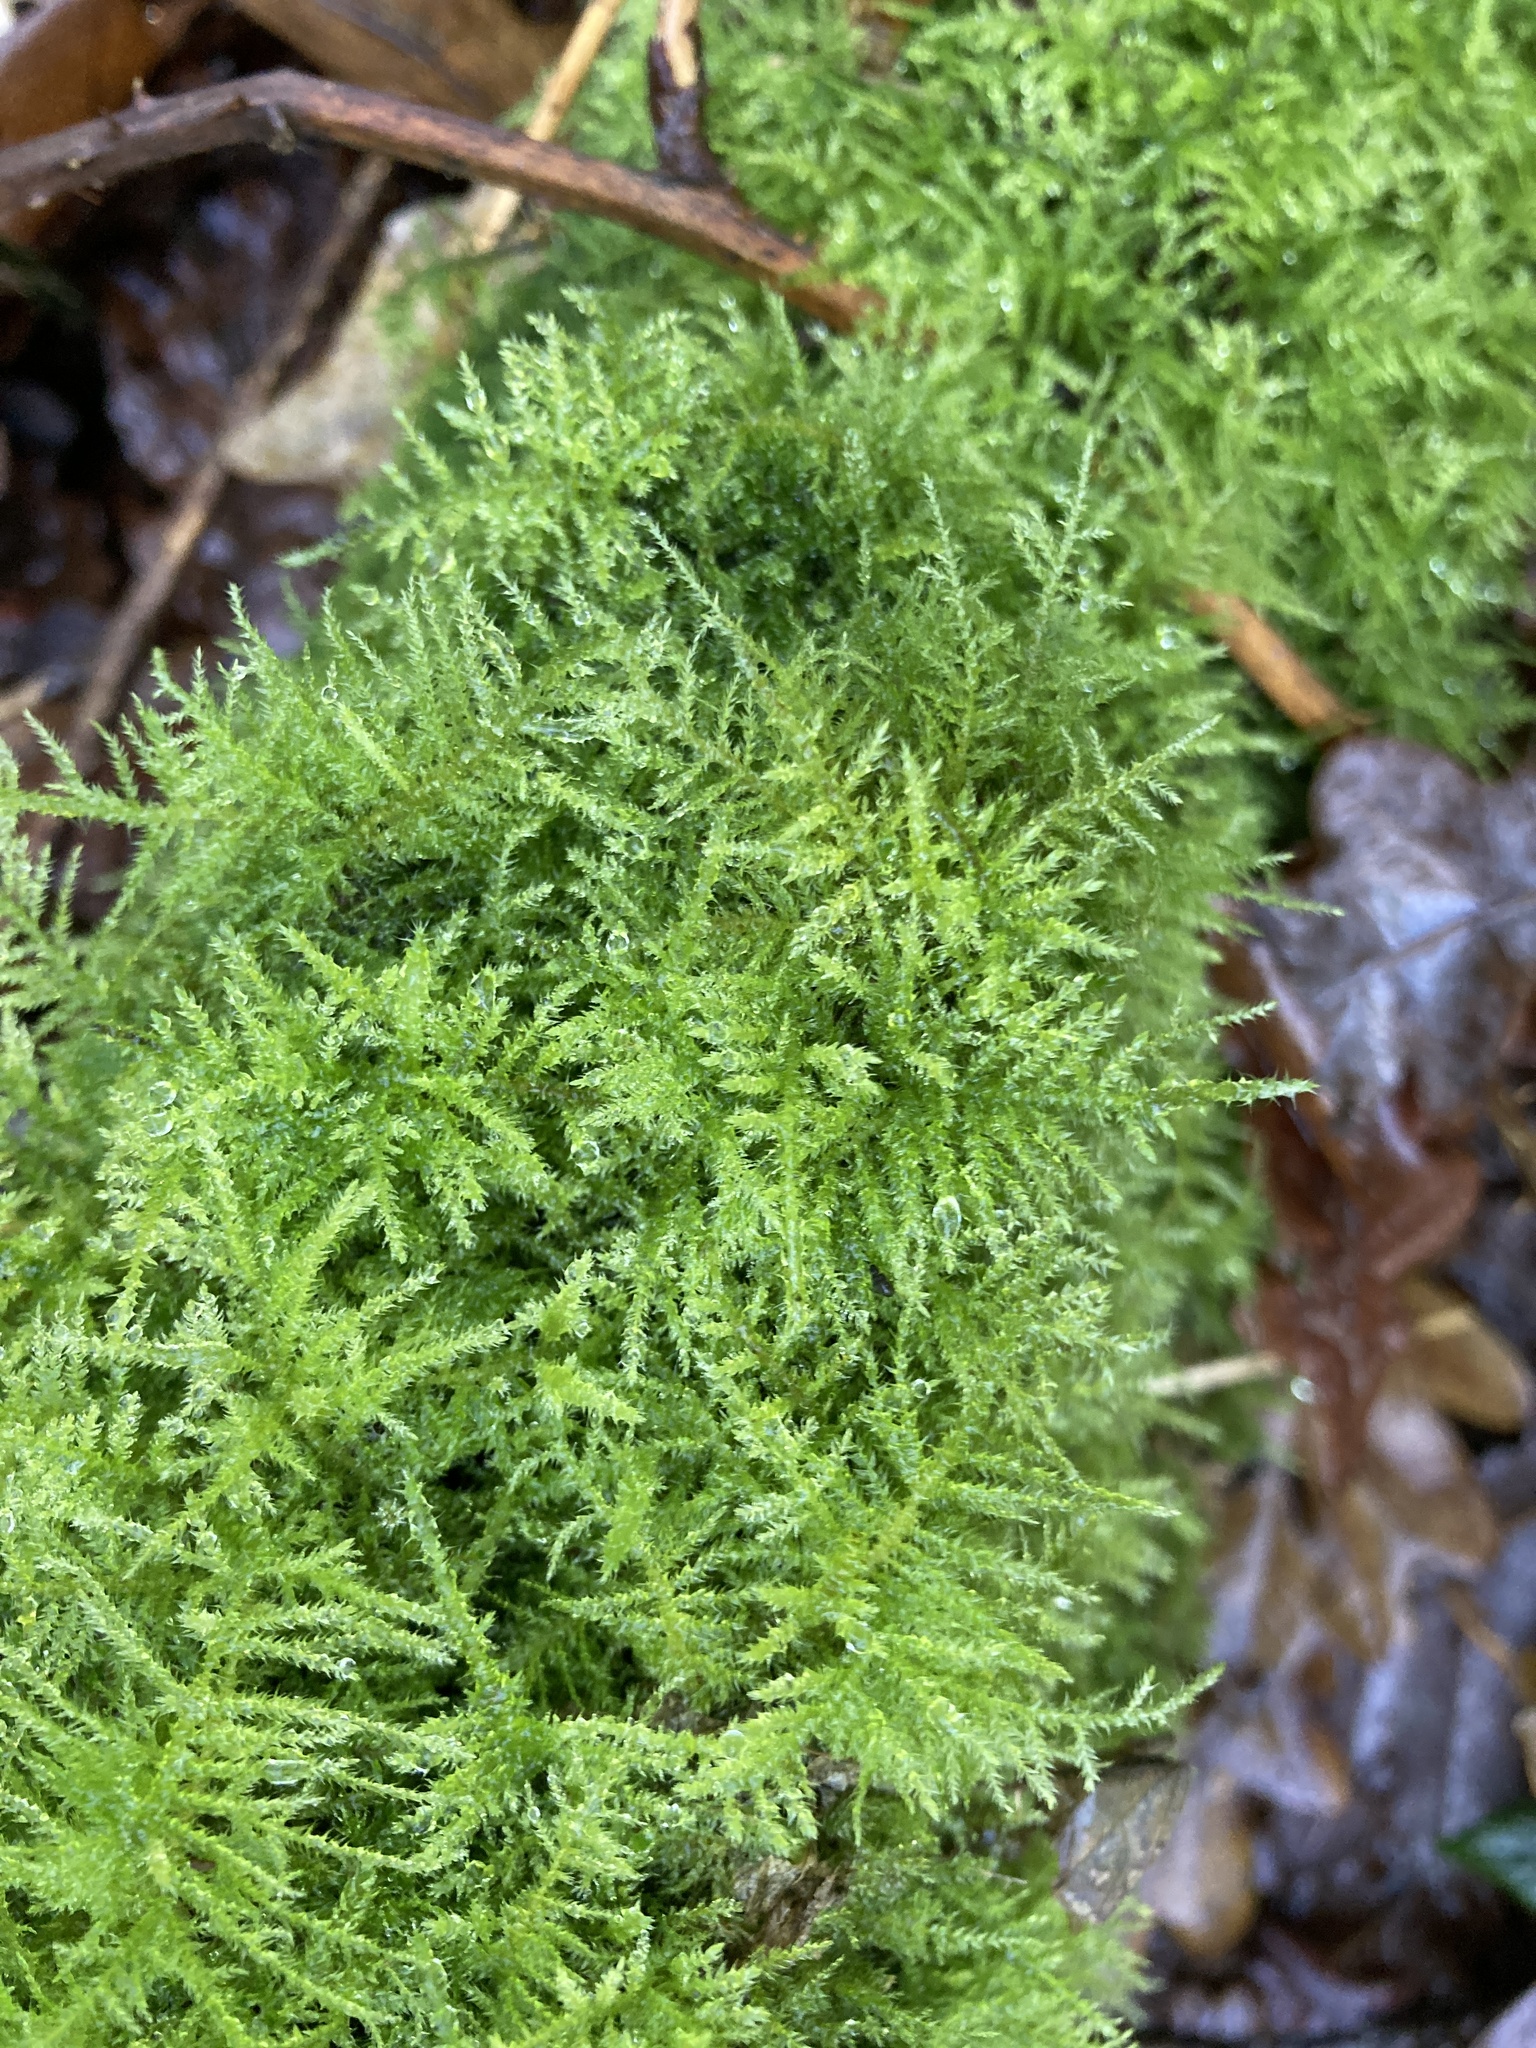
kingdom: Plantae
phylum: Bryophyta
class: Bryopsida
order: Hypnales
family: Brachytheciaceae
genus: Kindbergia
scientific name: Kindbergia praelonga
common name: Slender beaked moss
